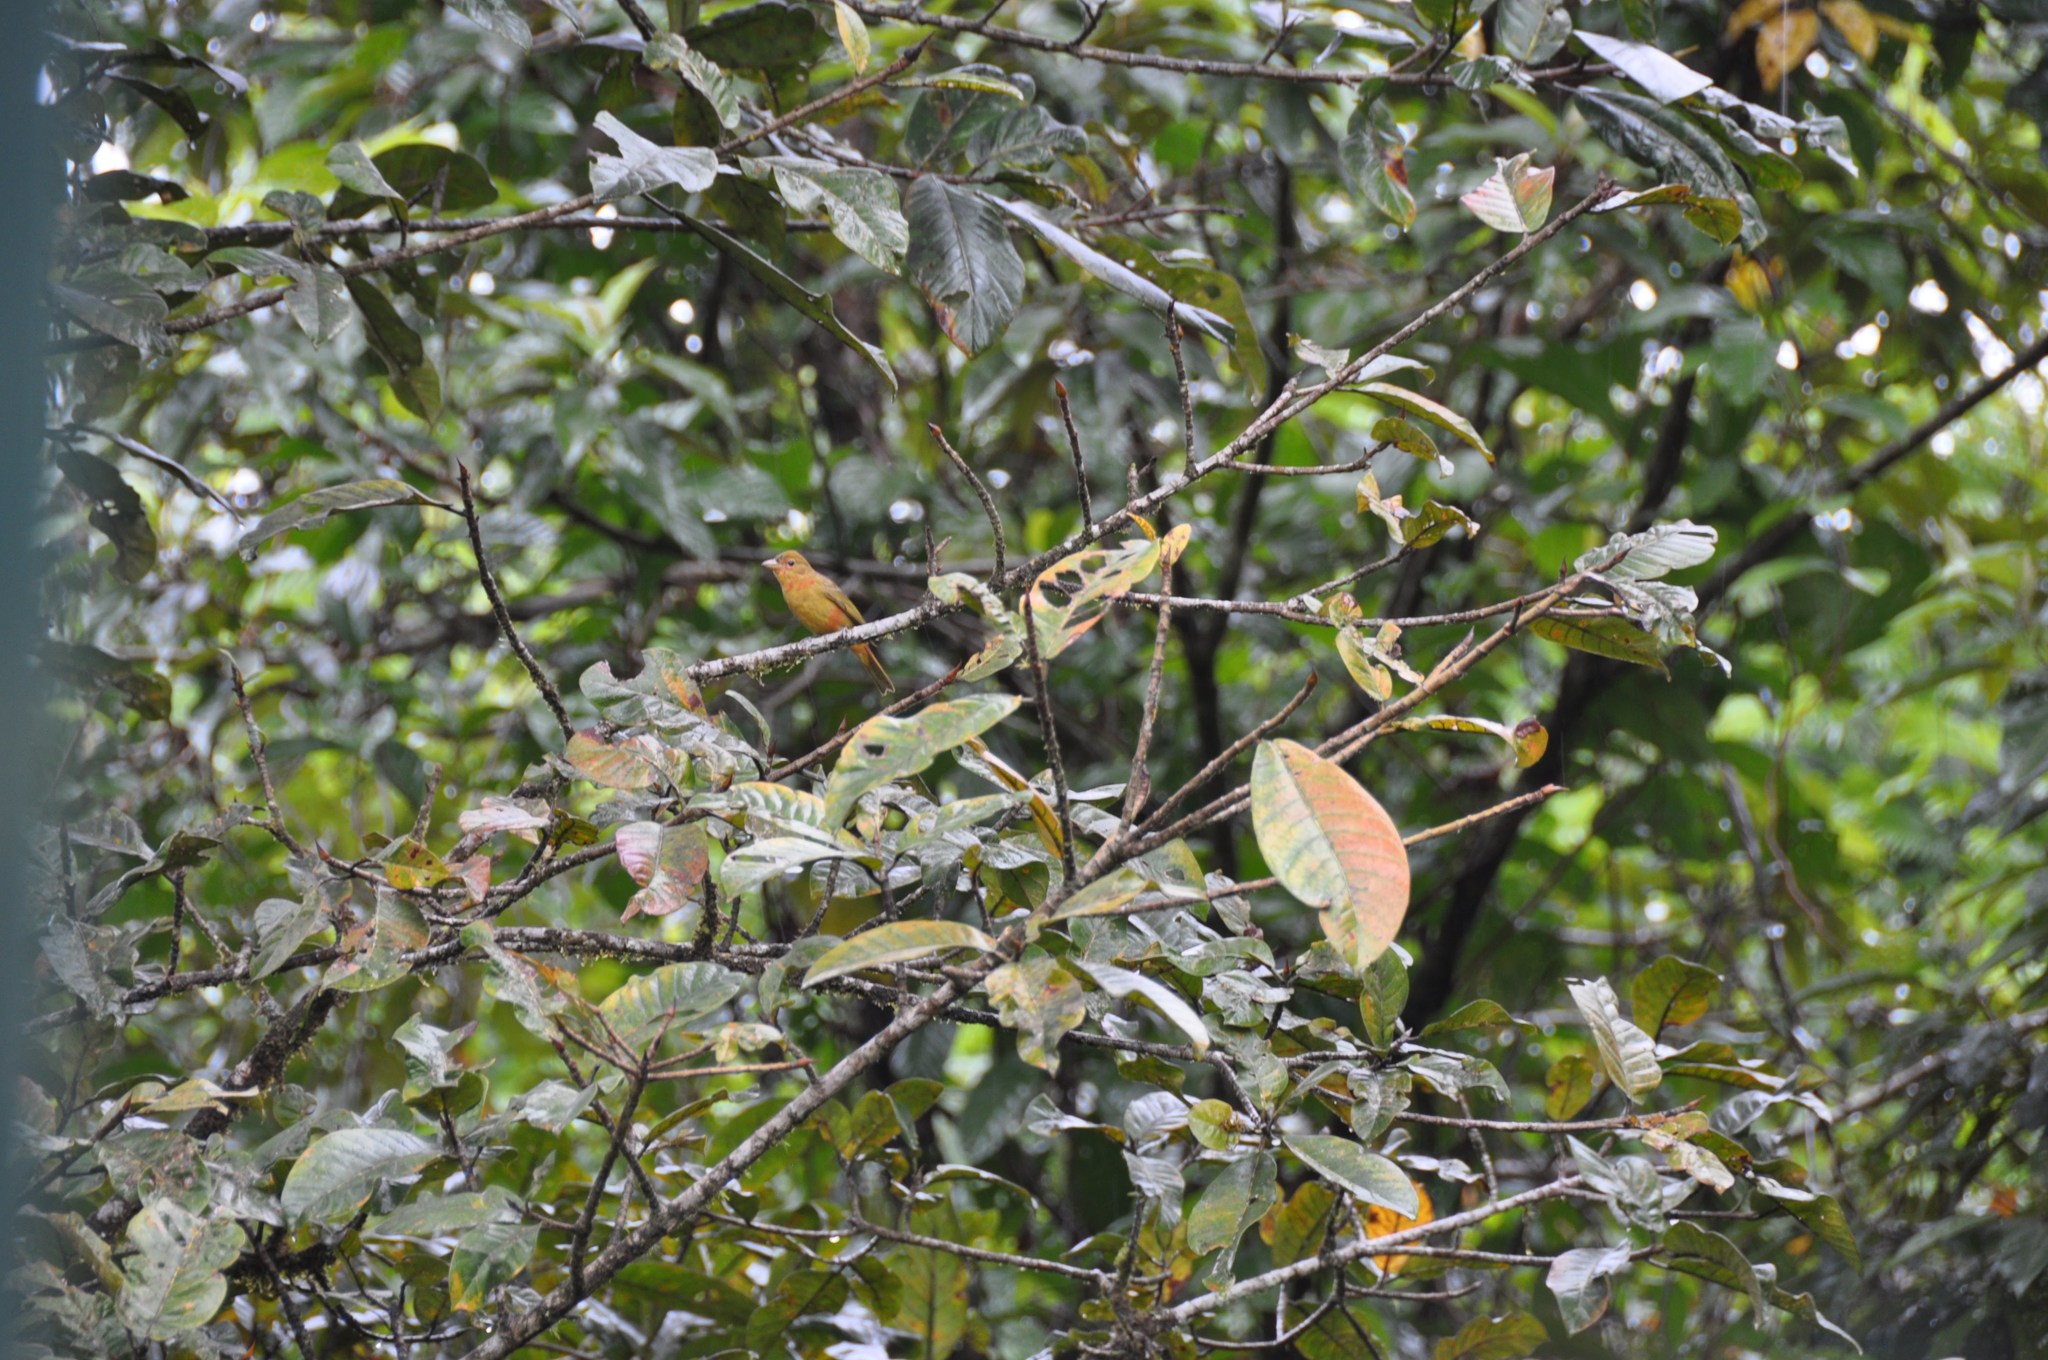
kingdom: Animalia
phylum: Chordata
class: Aves
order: Passeriformes
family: Cardinalidae
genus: Piranga
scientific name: Piranga rubra
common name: Summer tanager
